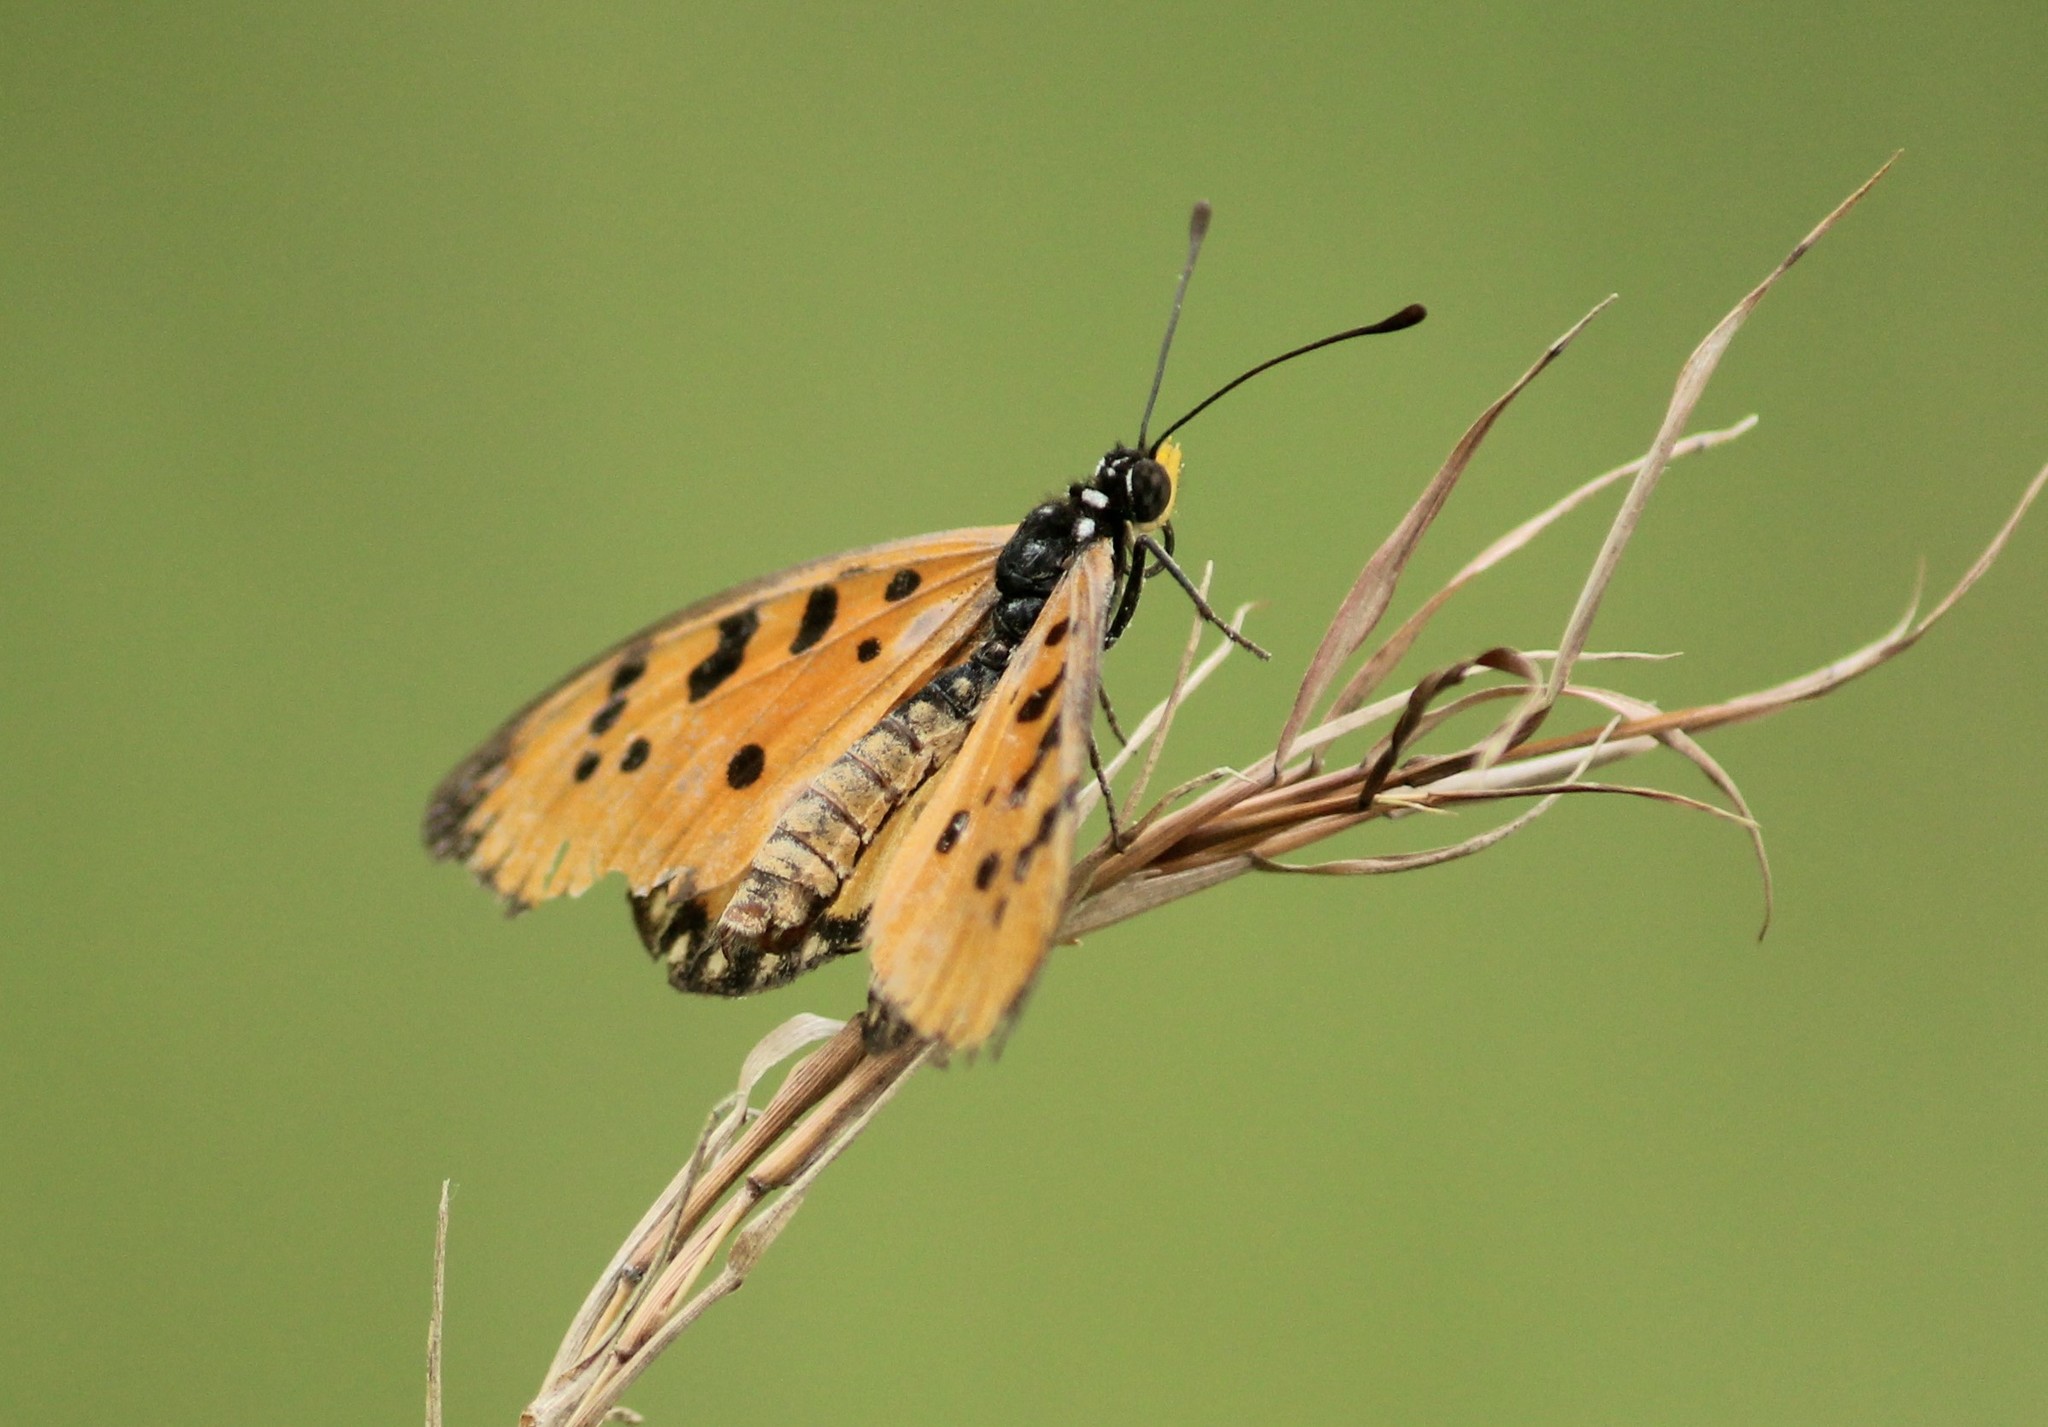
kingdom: Animalia
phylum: Arthropoda
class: Insecta
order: Lepidoptera
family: Nymphalidae
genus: Acraea
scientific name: Acraea terpsicore
